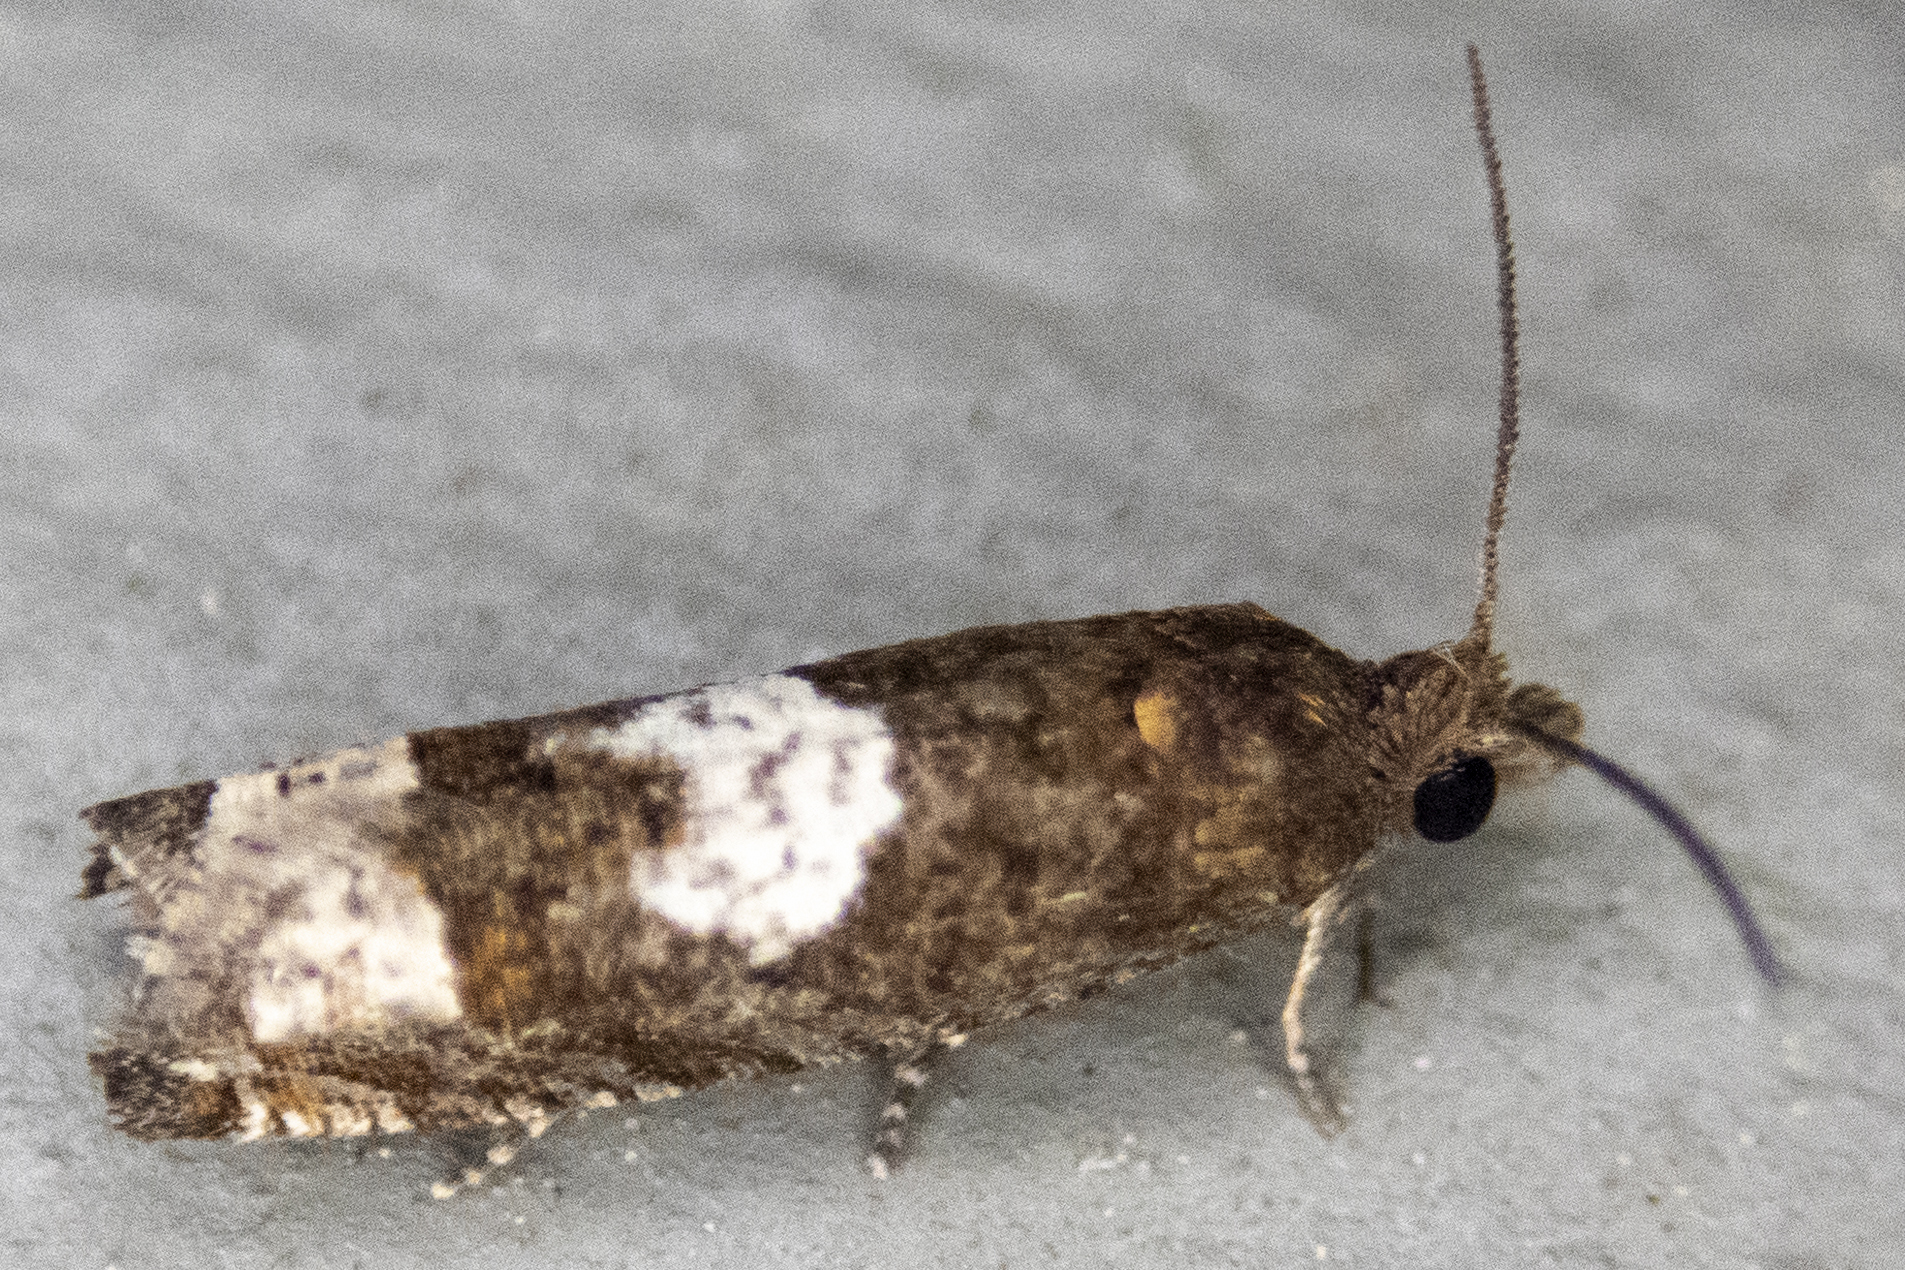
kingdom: Animalia
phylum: Arthropoda
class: Insecta
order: Lepidoptera
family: Tortricidae
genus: Eucosma
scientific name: Eucosma parmatana
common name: Aster eucosma moth
